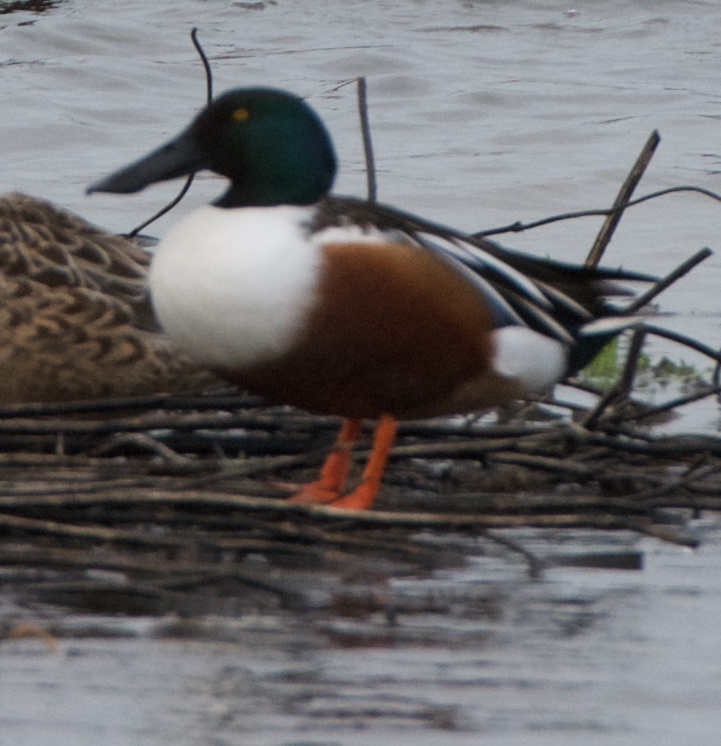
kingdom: Animalia
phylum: Chordata
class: Aves
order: Anseriformes
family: Anatidae
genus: Spatula
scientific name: Spatula clypeata
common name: Northern shoveler
